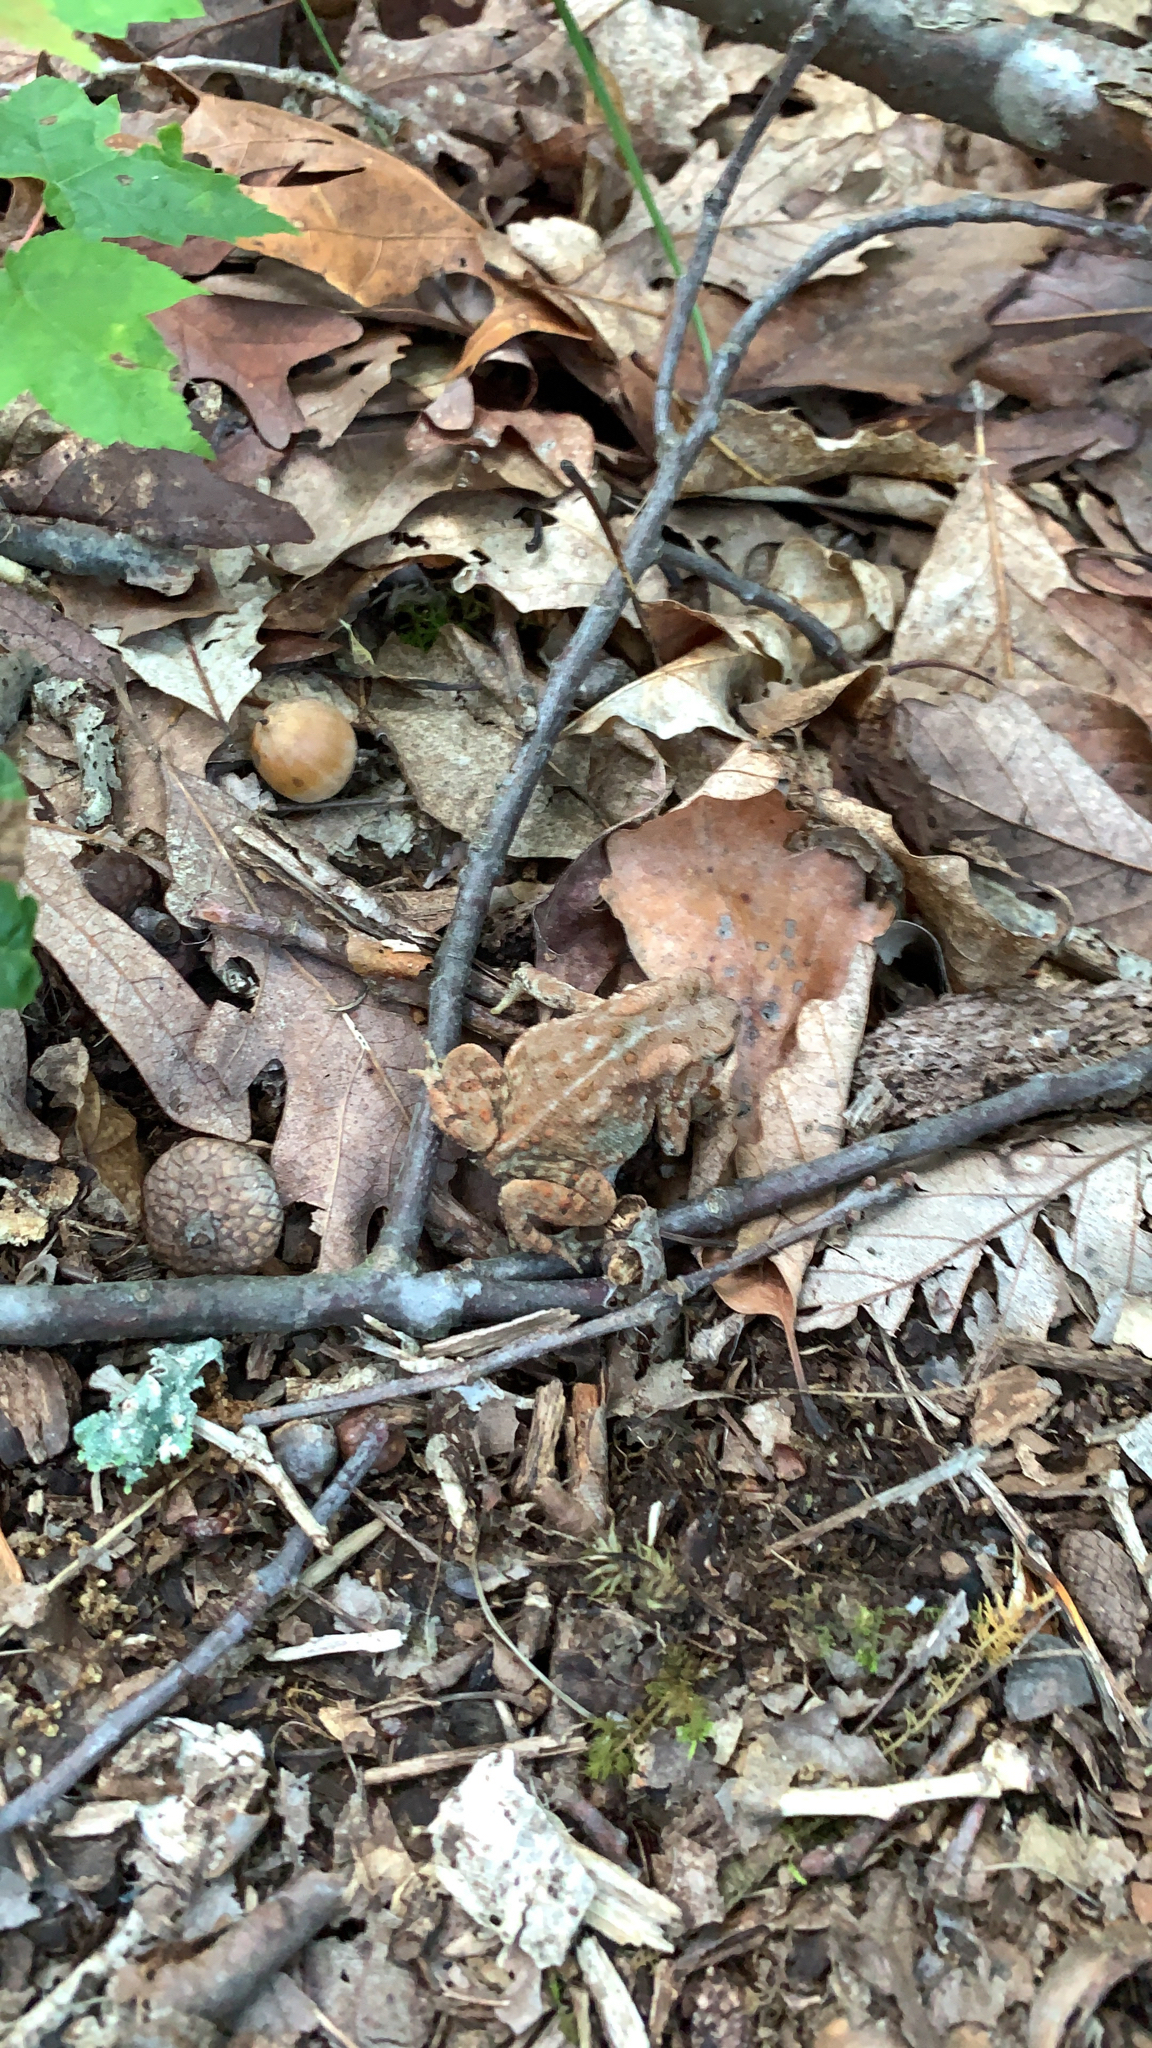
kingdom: Animalia
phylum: Chordata
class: Amphibia
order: Anura
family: Bufonidae
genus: Anaxyrus
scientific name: Anaxyrus americanus
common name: American toad
